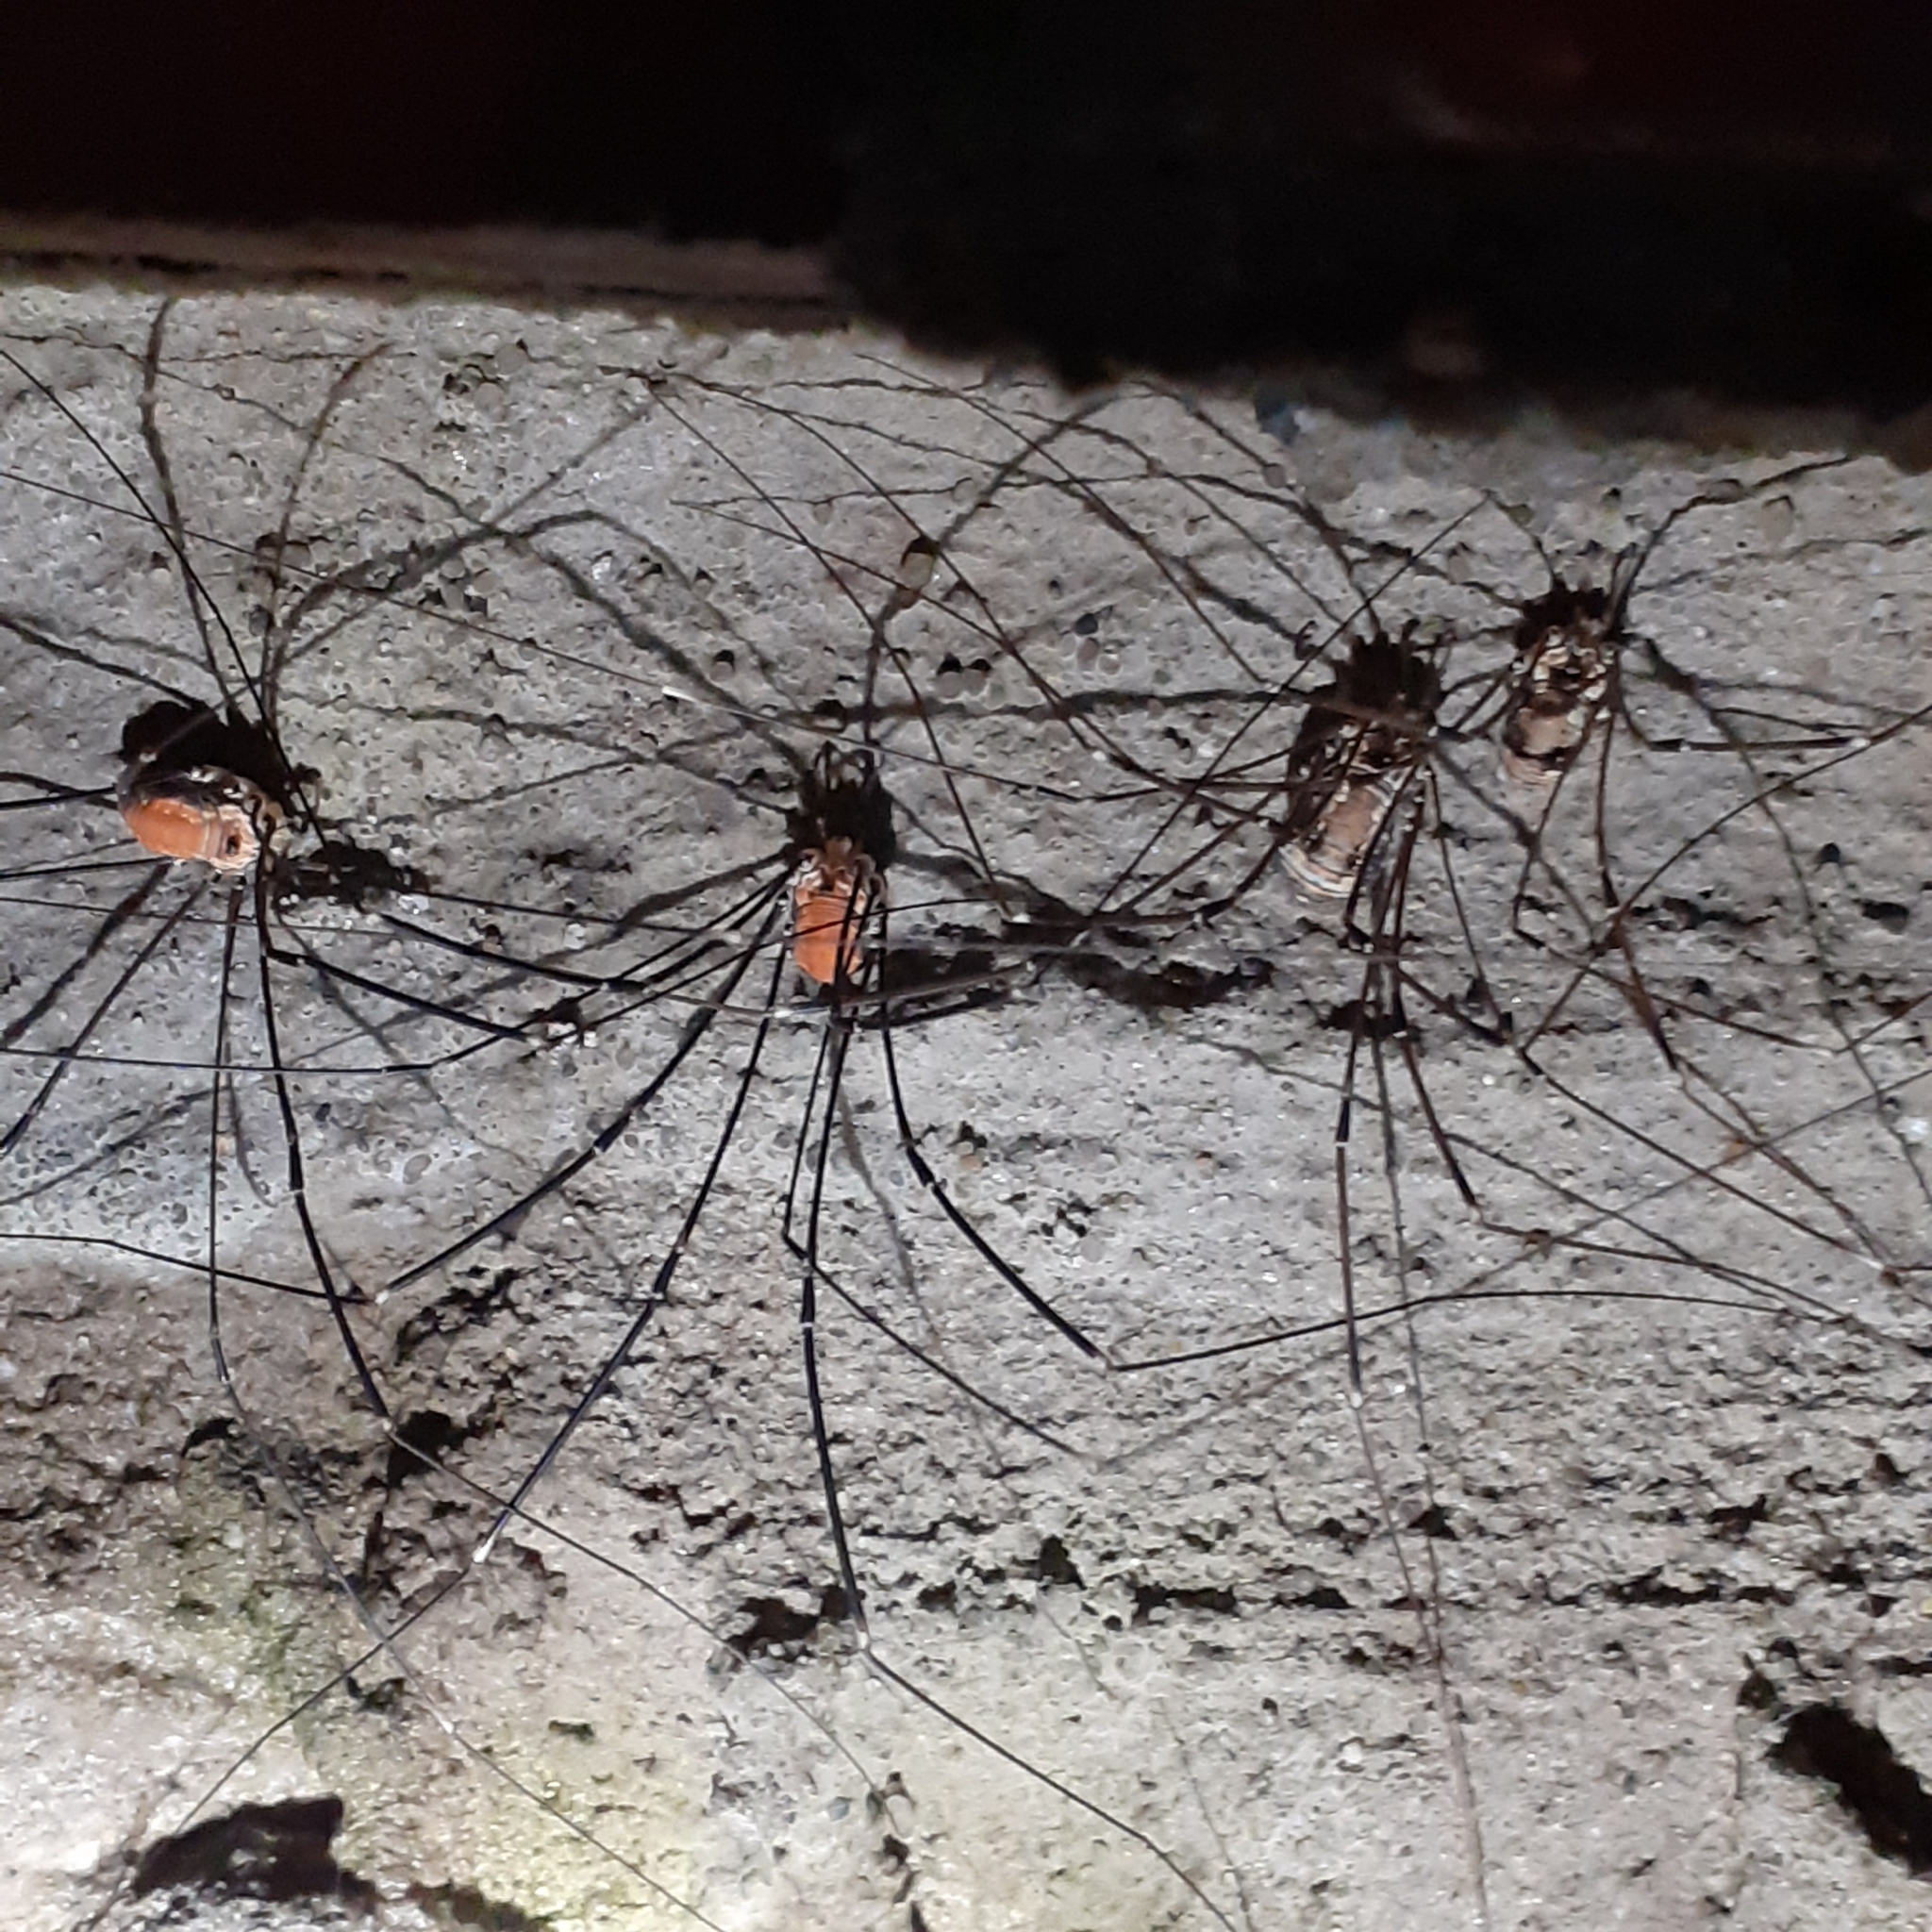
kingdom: Animalia
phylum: Arthropoda
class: Arachnida
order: Opiliones
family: Sclerosomatidae
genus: Leiobunum
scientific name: Leiobunum limbatum
